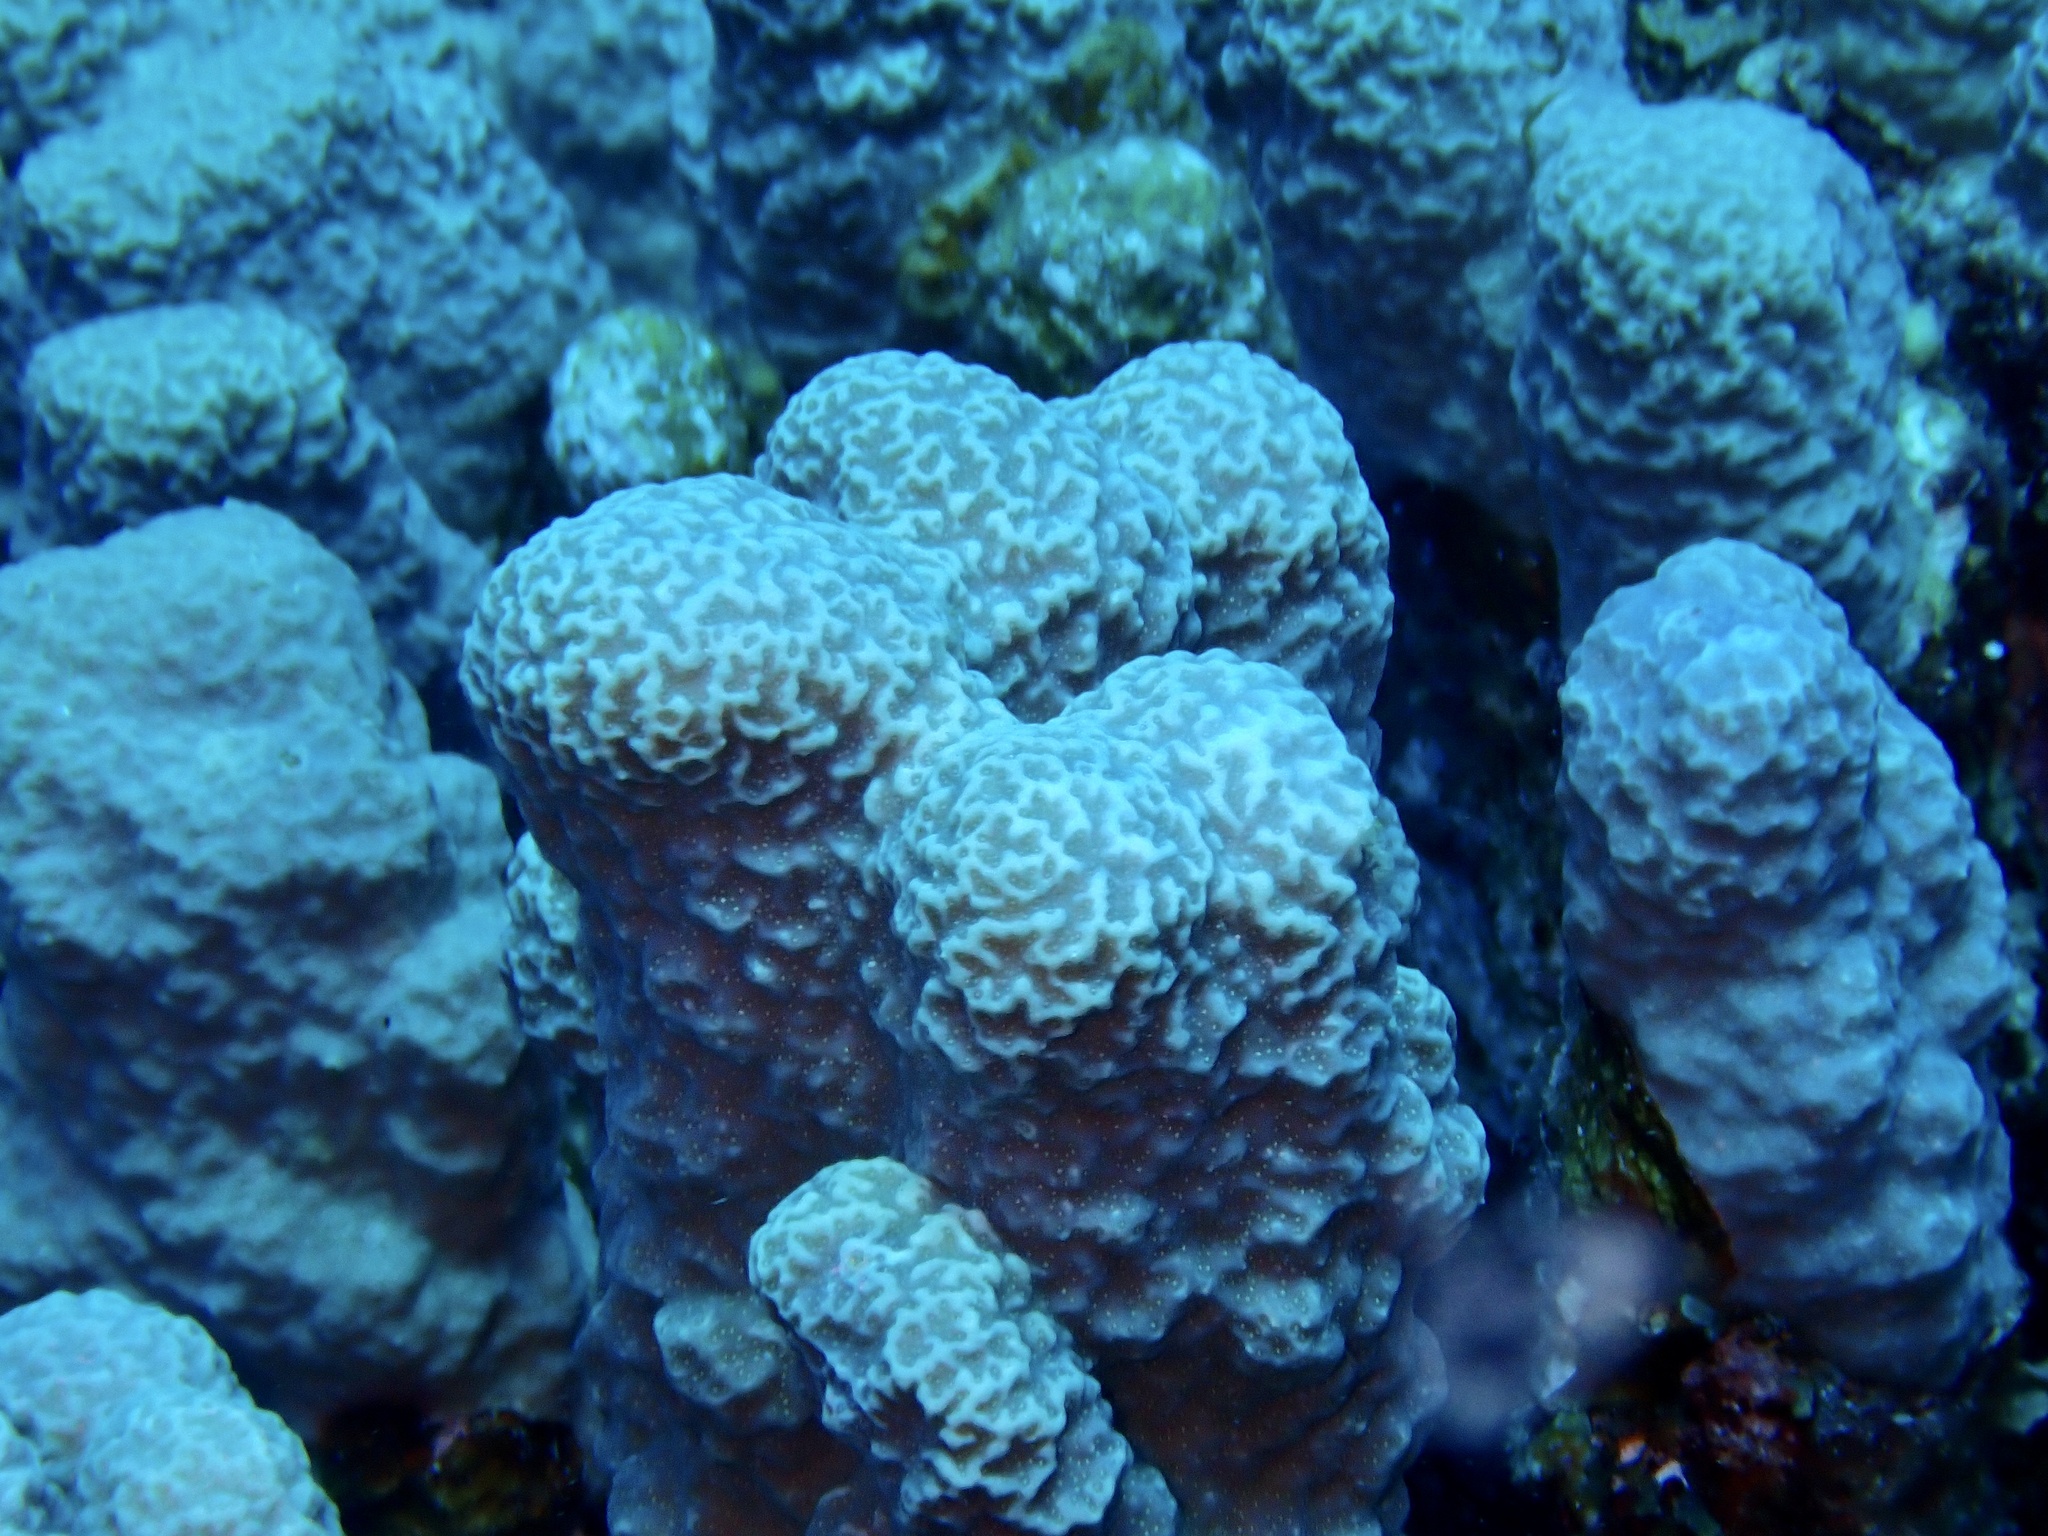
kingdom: Animalia
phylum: Cnidaria
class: Anthozoa
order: Scleractinia
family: Poritidae
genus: Porites
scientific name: Porites rus
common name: Hump coral
